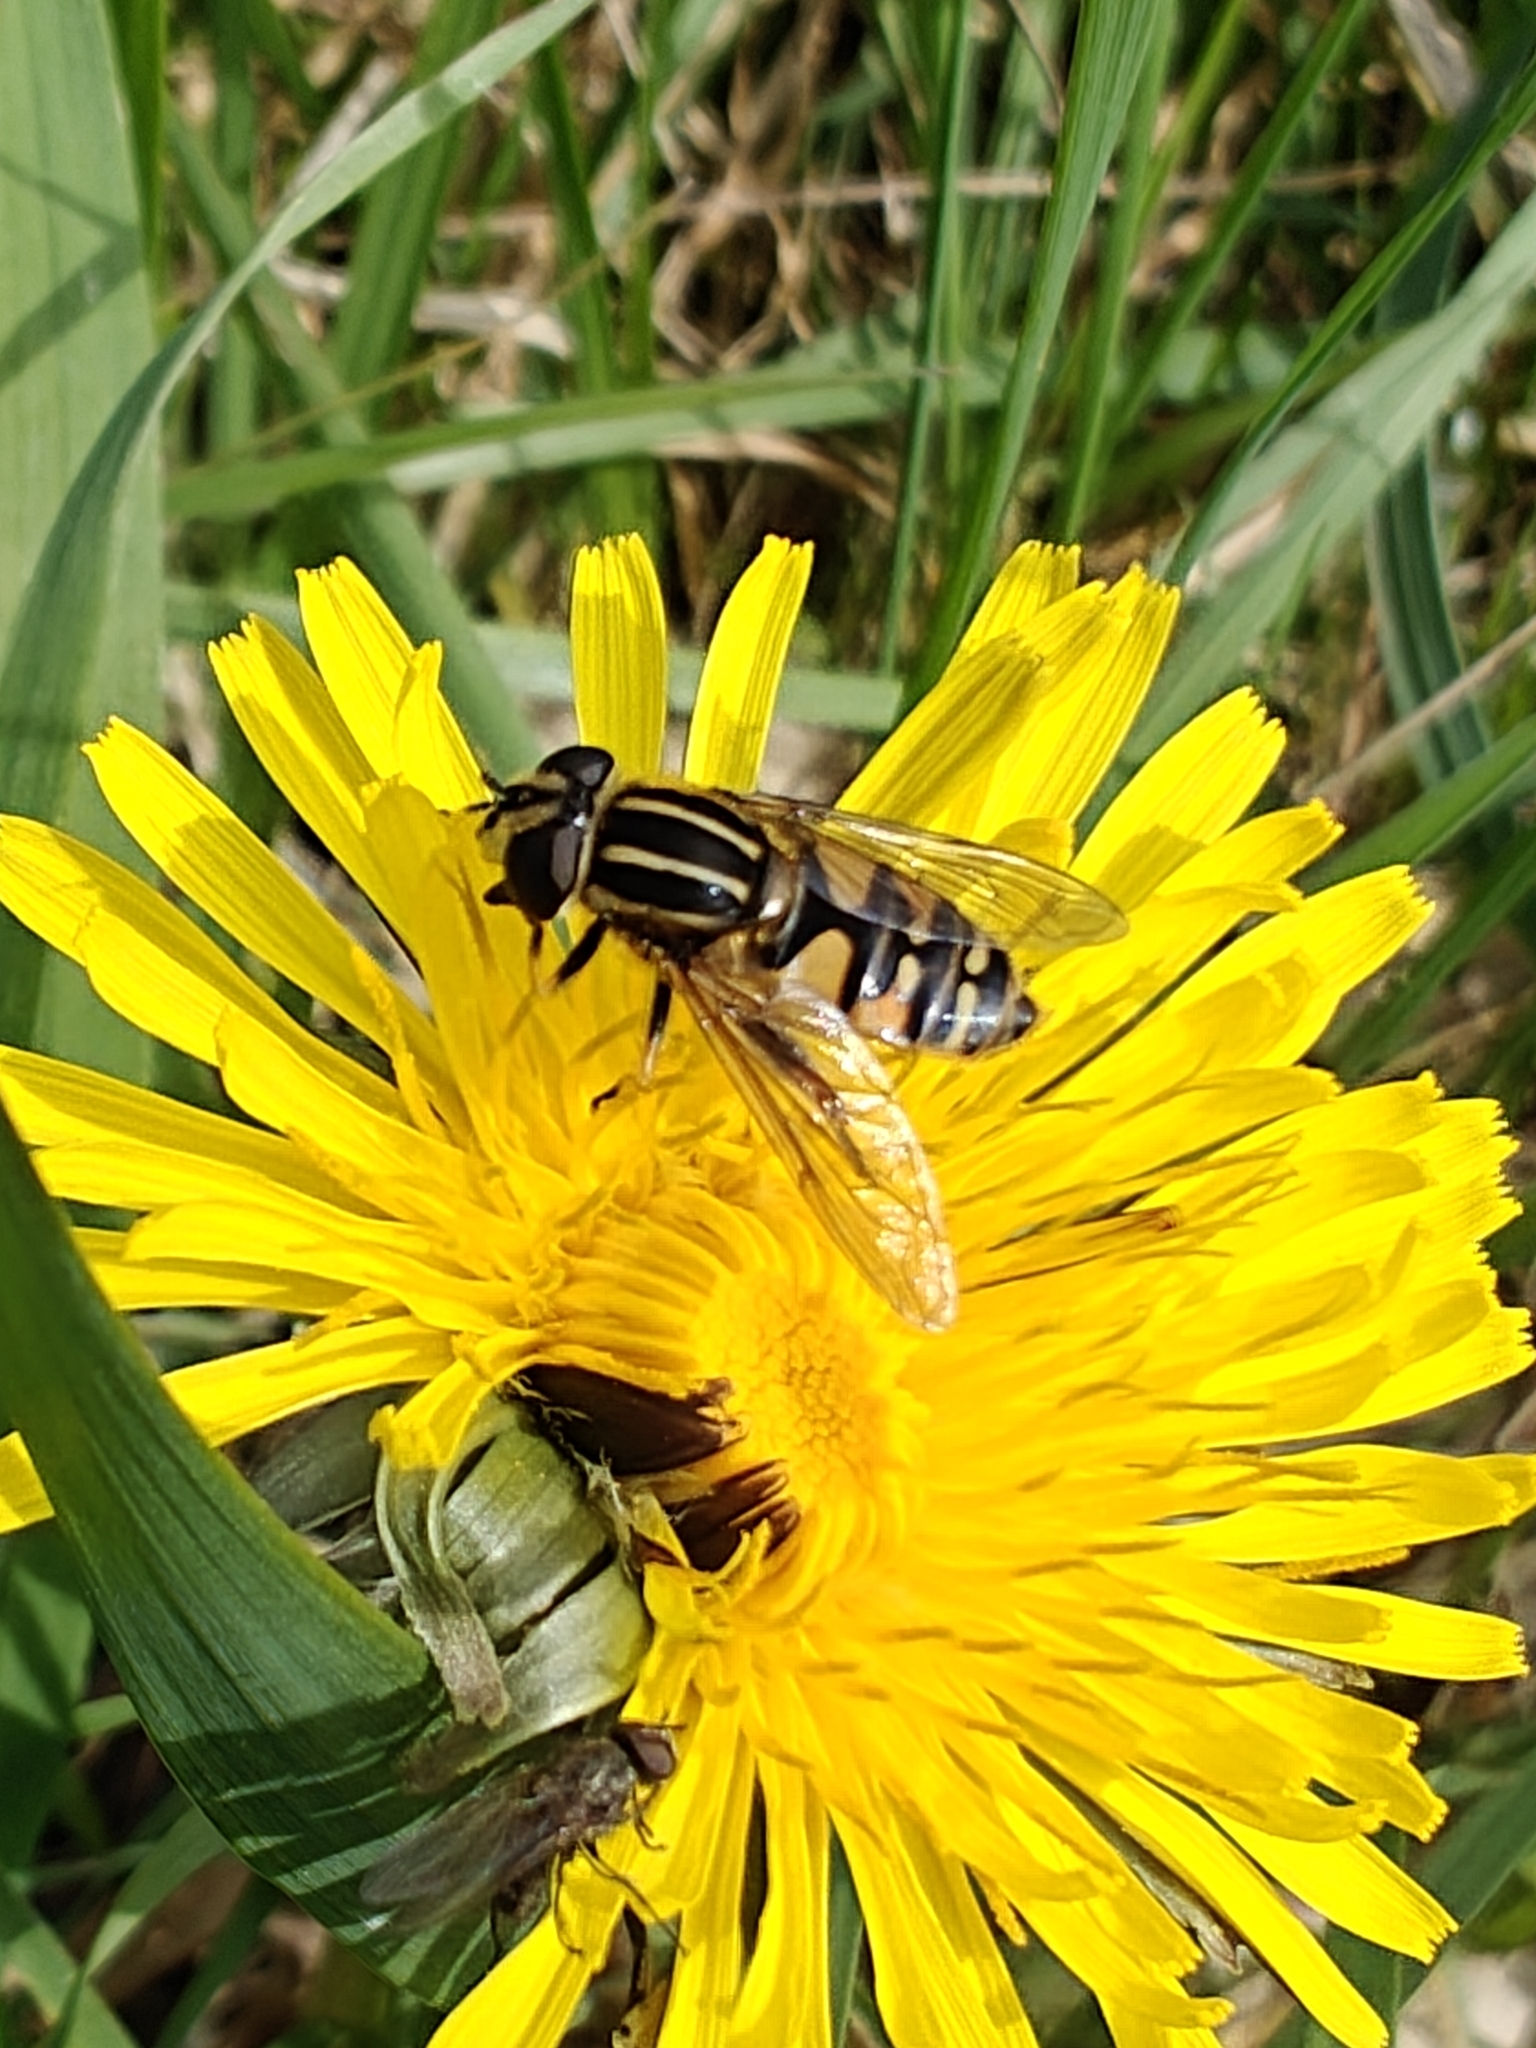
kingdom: Animalia
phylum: Arthropoda
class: Insecta
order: Diptera
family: Syrphidae
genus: Helophilus
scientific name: Helophilus pendulus
